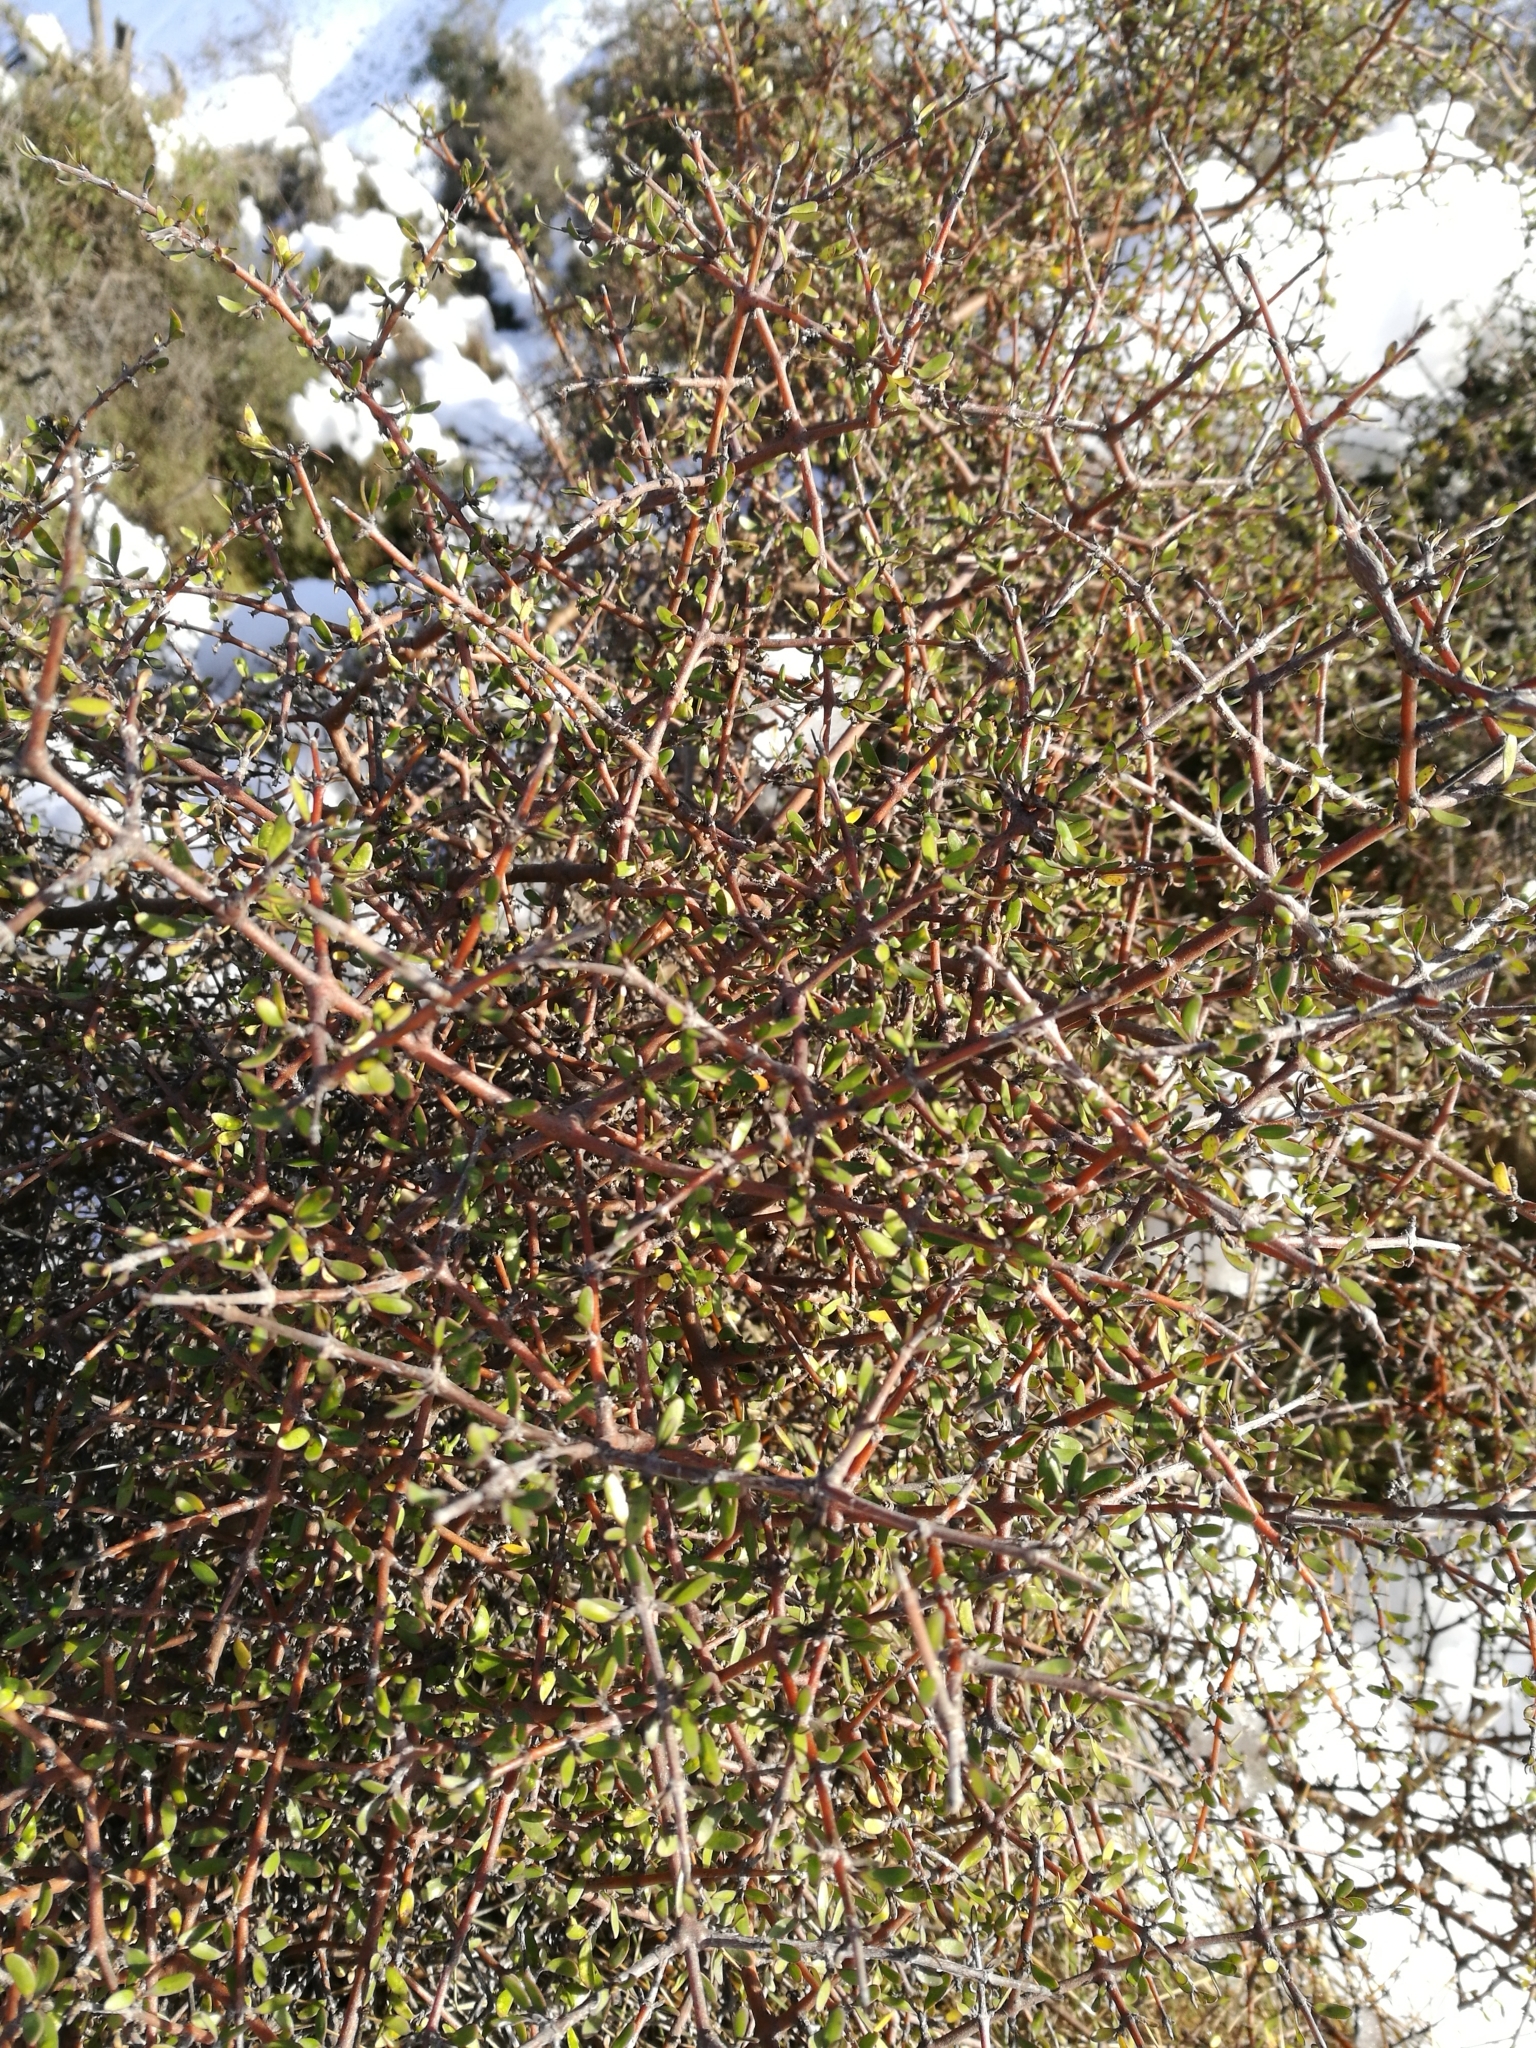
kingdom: Plantae
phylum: Tracheophyta
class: Magnoliopsida
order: Gentianales
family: Rubiaceae
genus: Coprosma
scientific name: Coprosma propinqua
